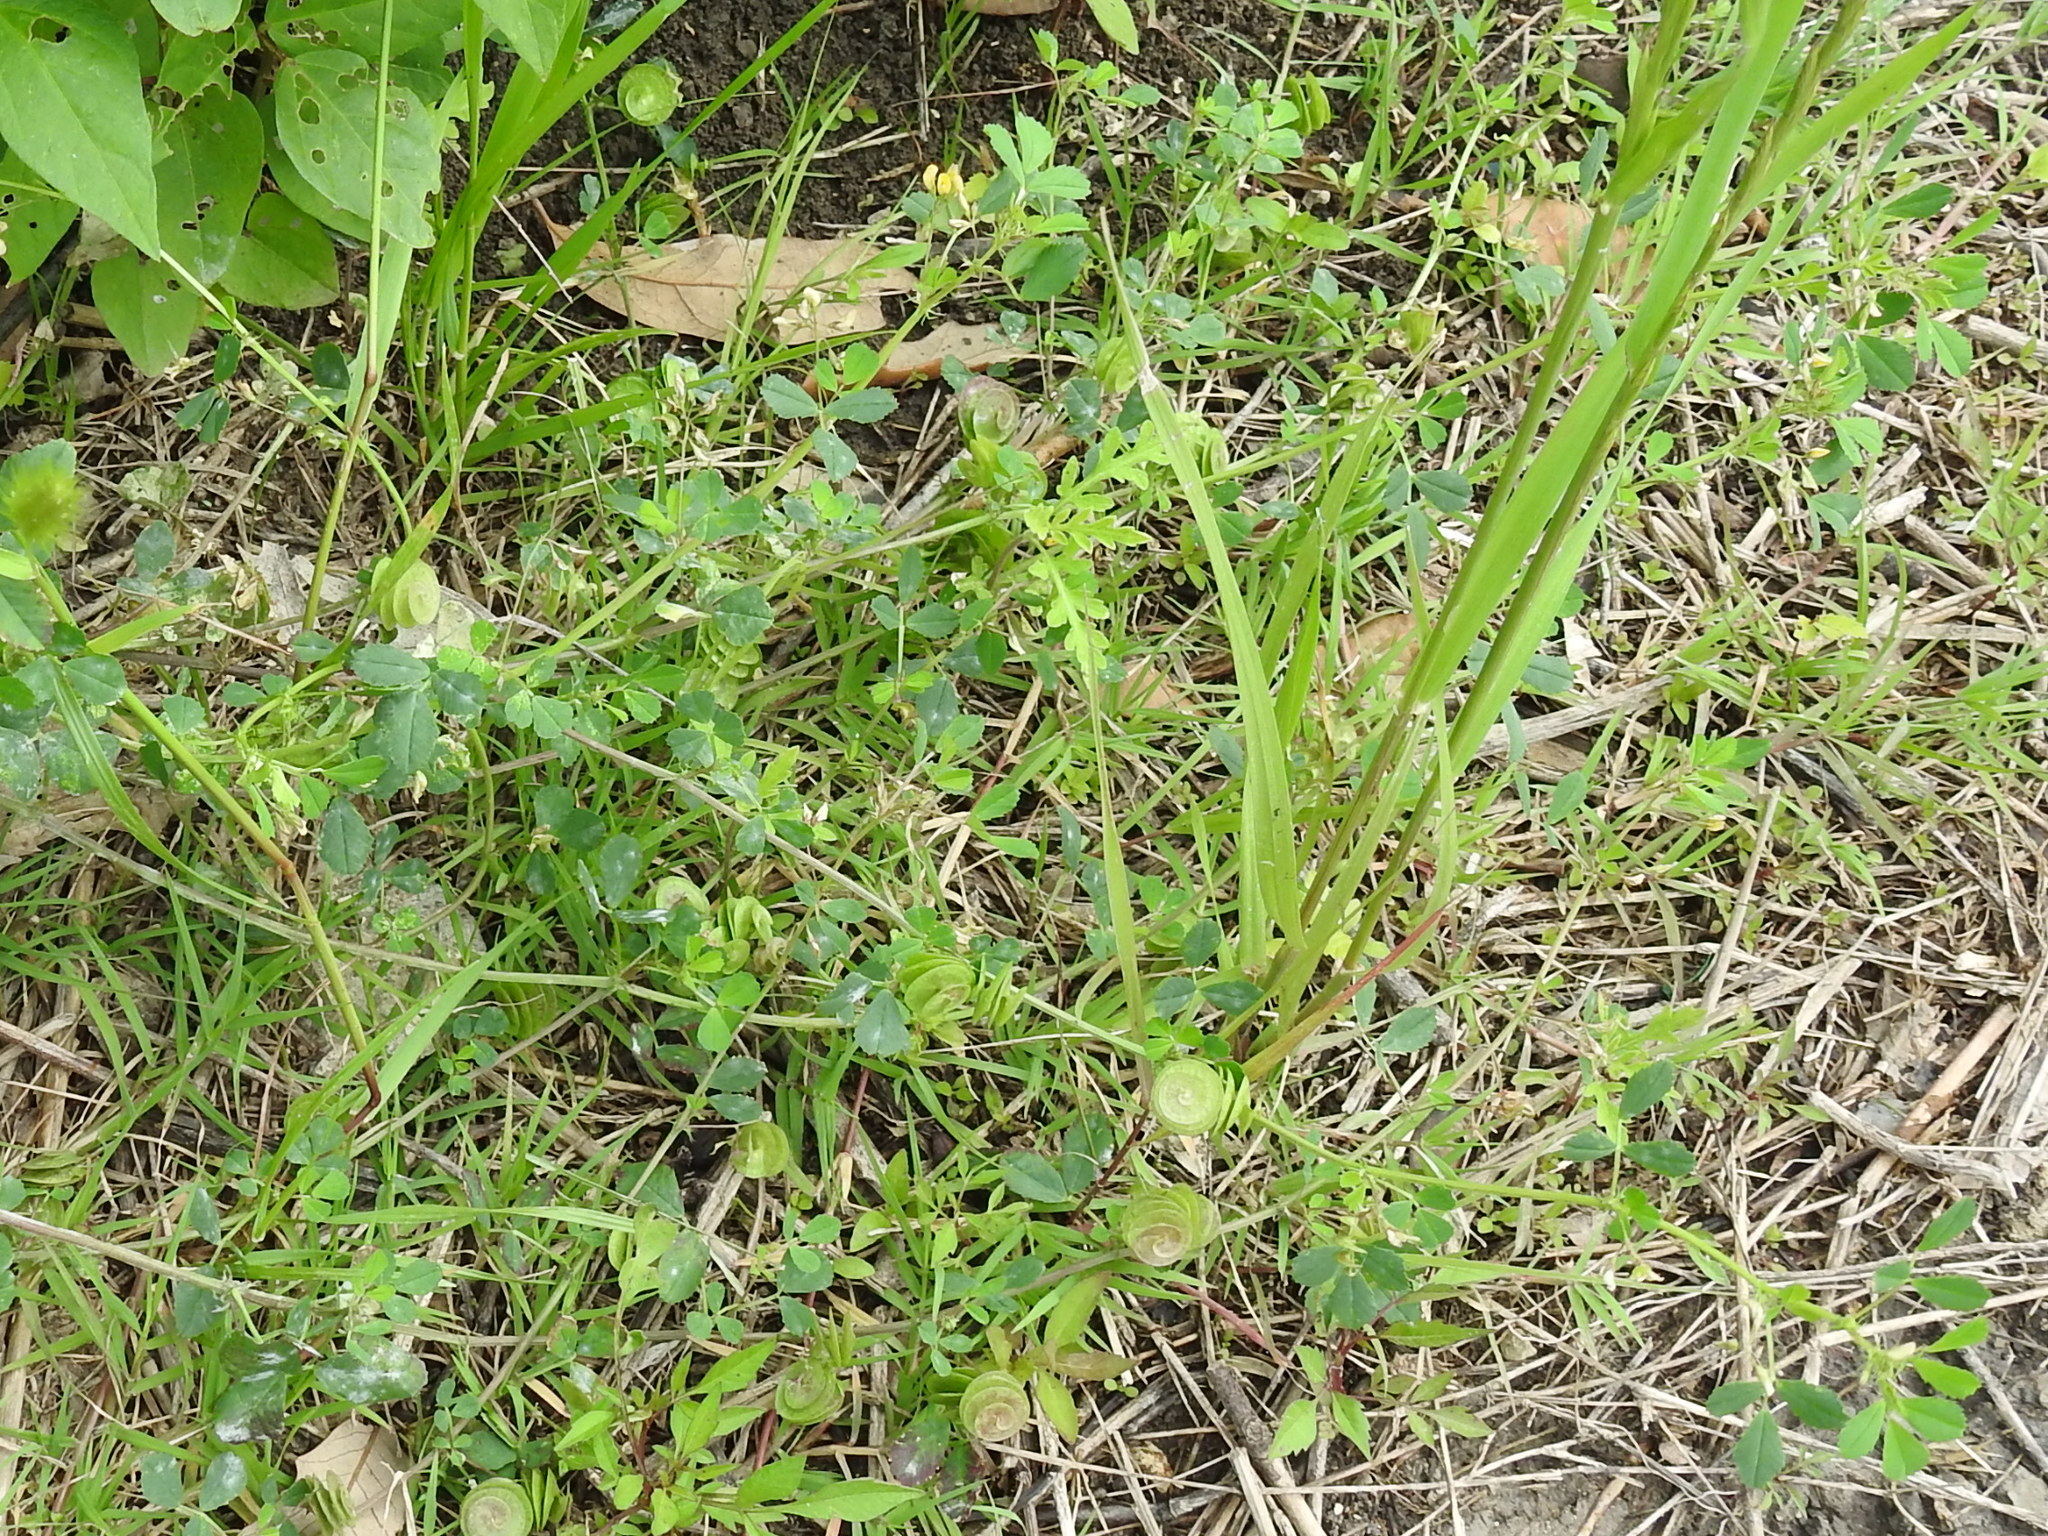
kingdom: Plantae
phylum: Tracheophyta
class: Magnoliopsida
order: Fabales
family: Fabaceae
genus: Medicago
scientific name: Medicago orbicularis
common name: Button medick
